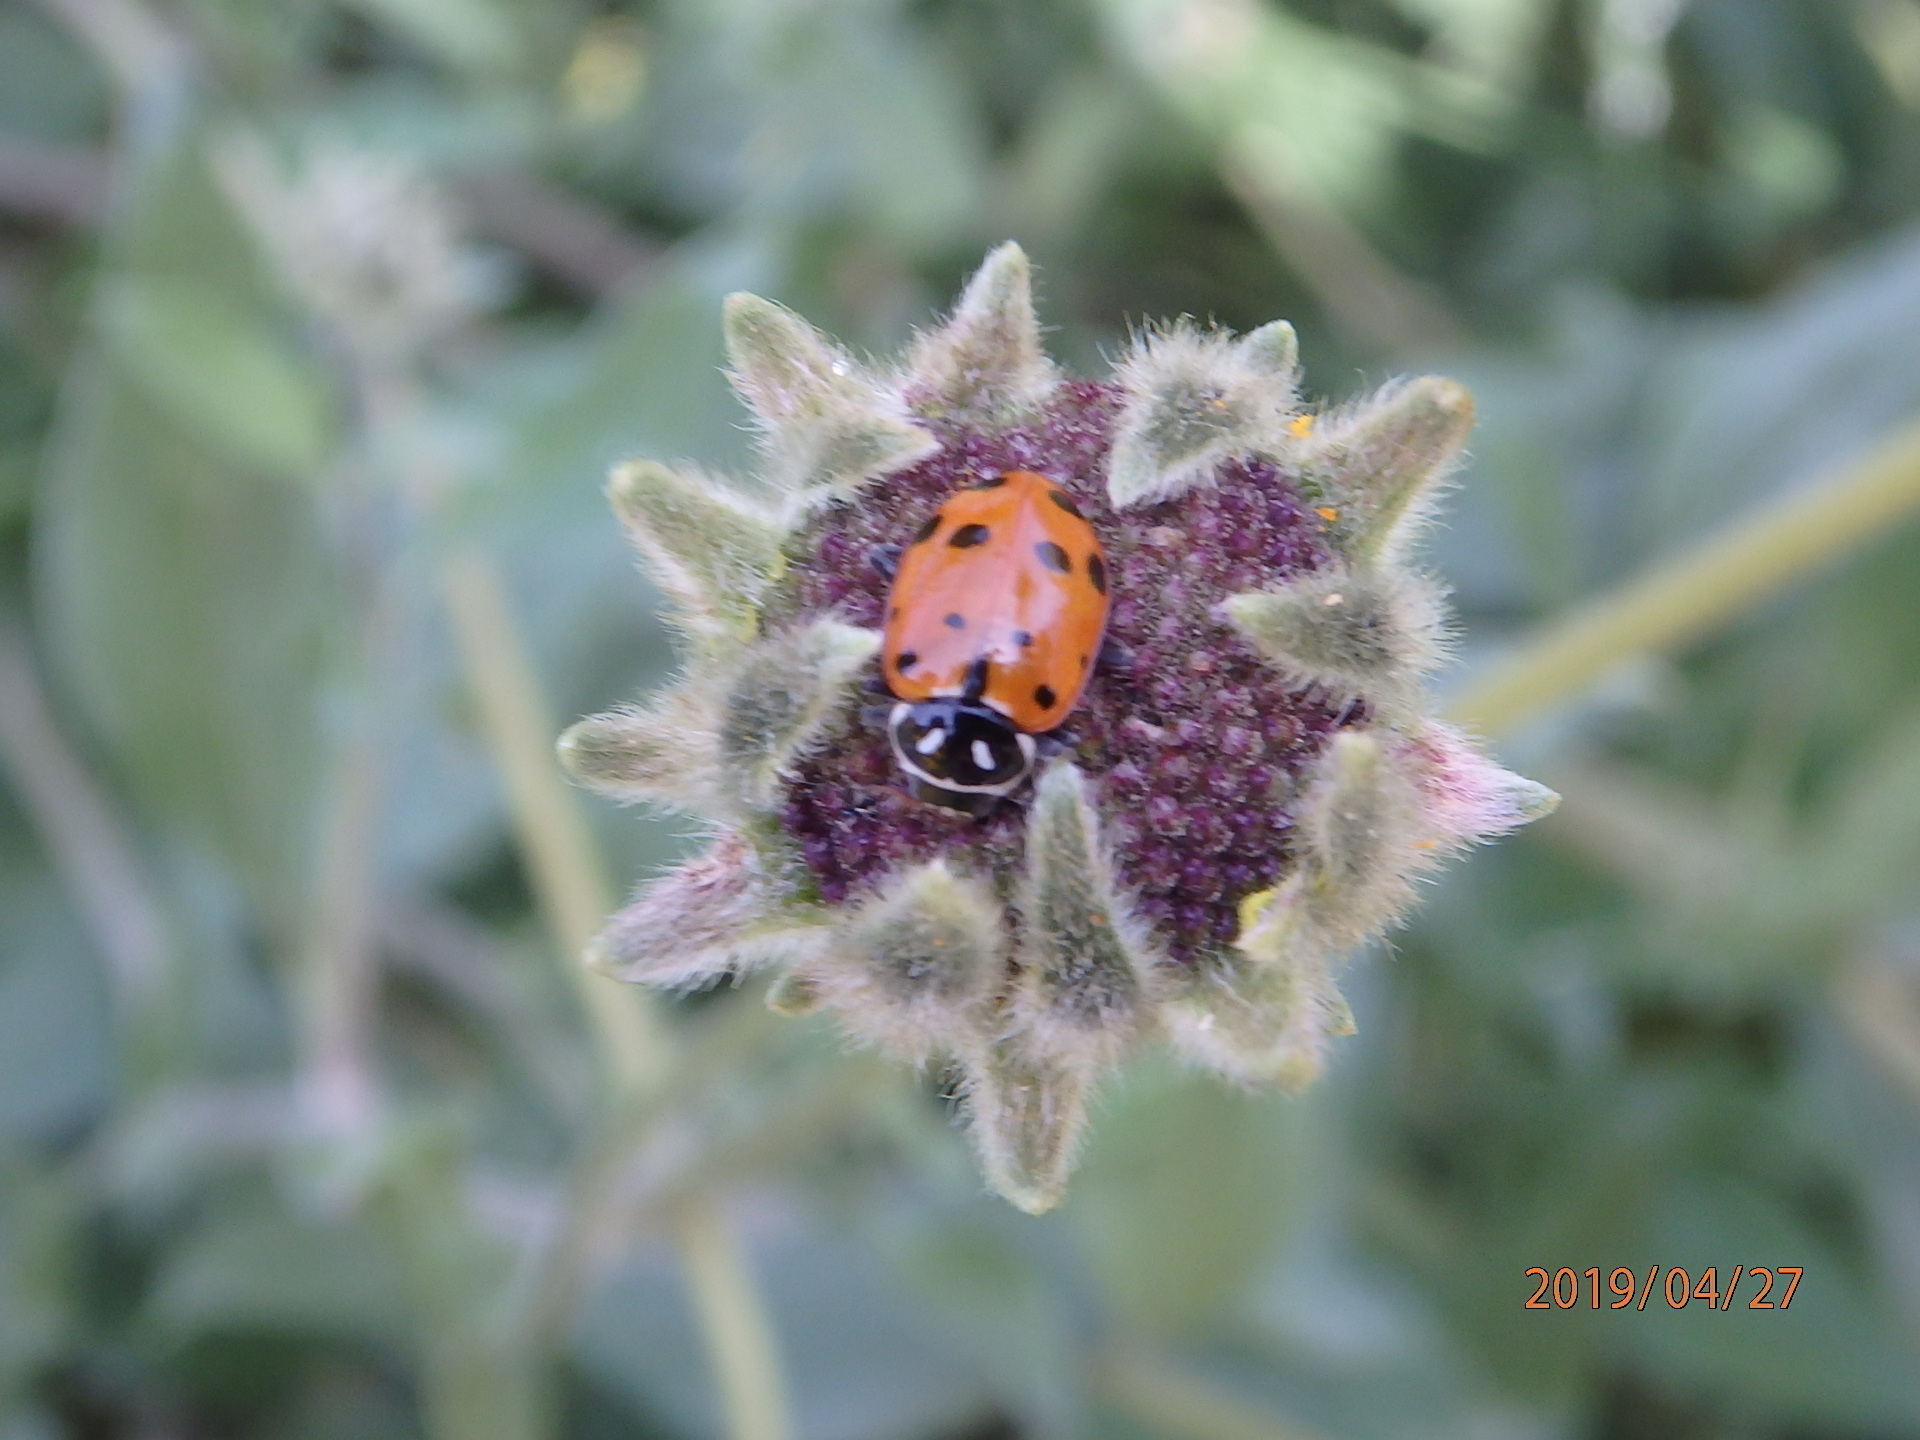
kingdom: Animalia
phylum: Arthropoda
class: Insecta
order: Coleoptera
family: Coccinellidae
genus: Hippodamia
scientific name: Hippodamia convergens
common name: Convergent lady beetle
